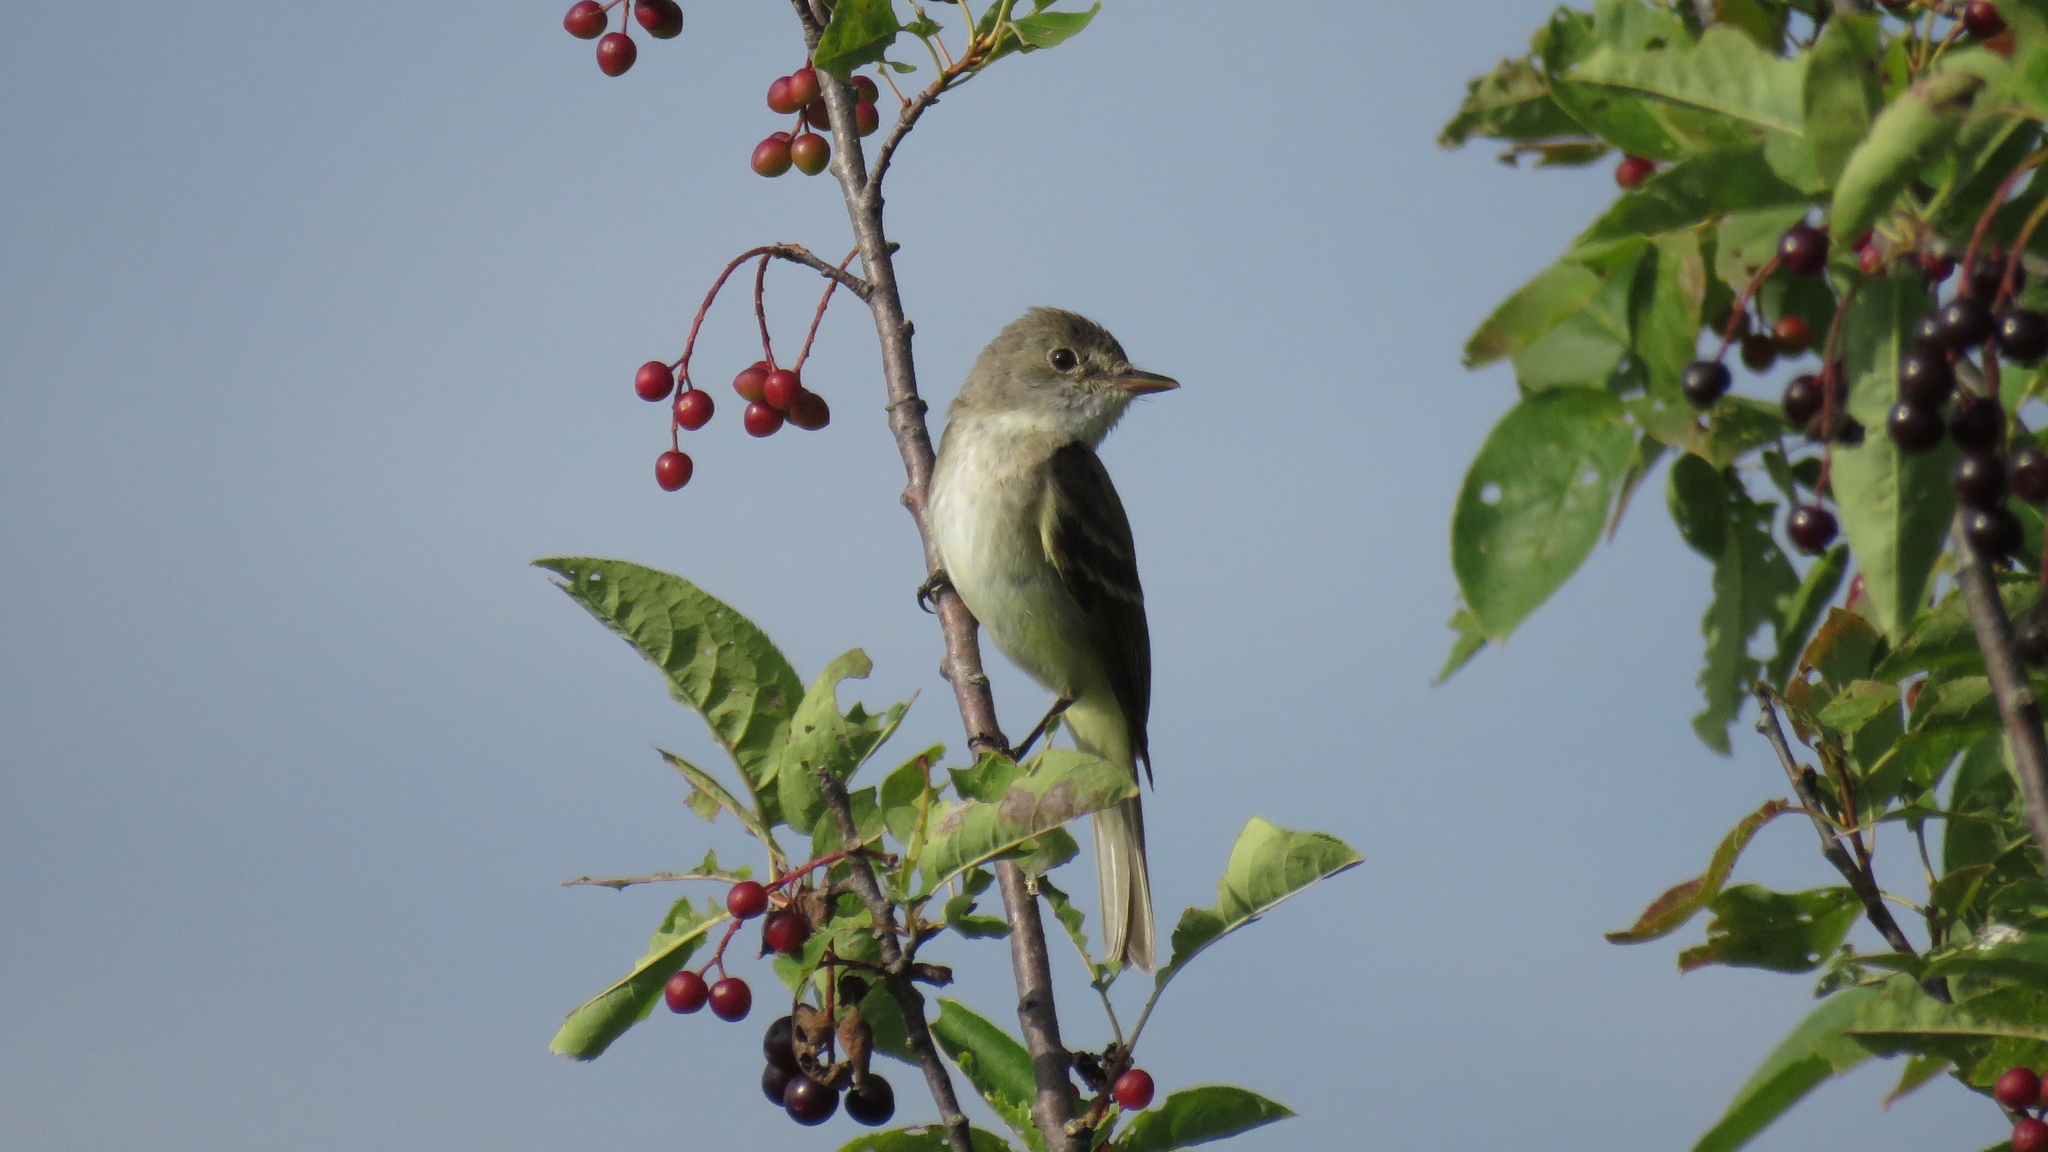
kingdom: Animalia
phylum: Chordata
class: Aves
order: Passeriformes
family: Tyrannidae
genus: Empidonax
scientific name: Empidonax traillii
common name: Willow flycatcher
